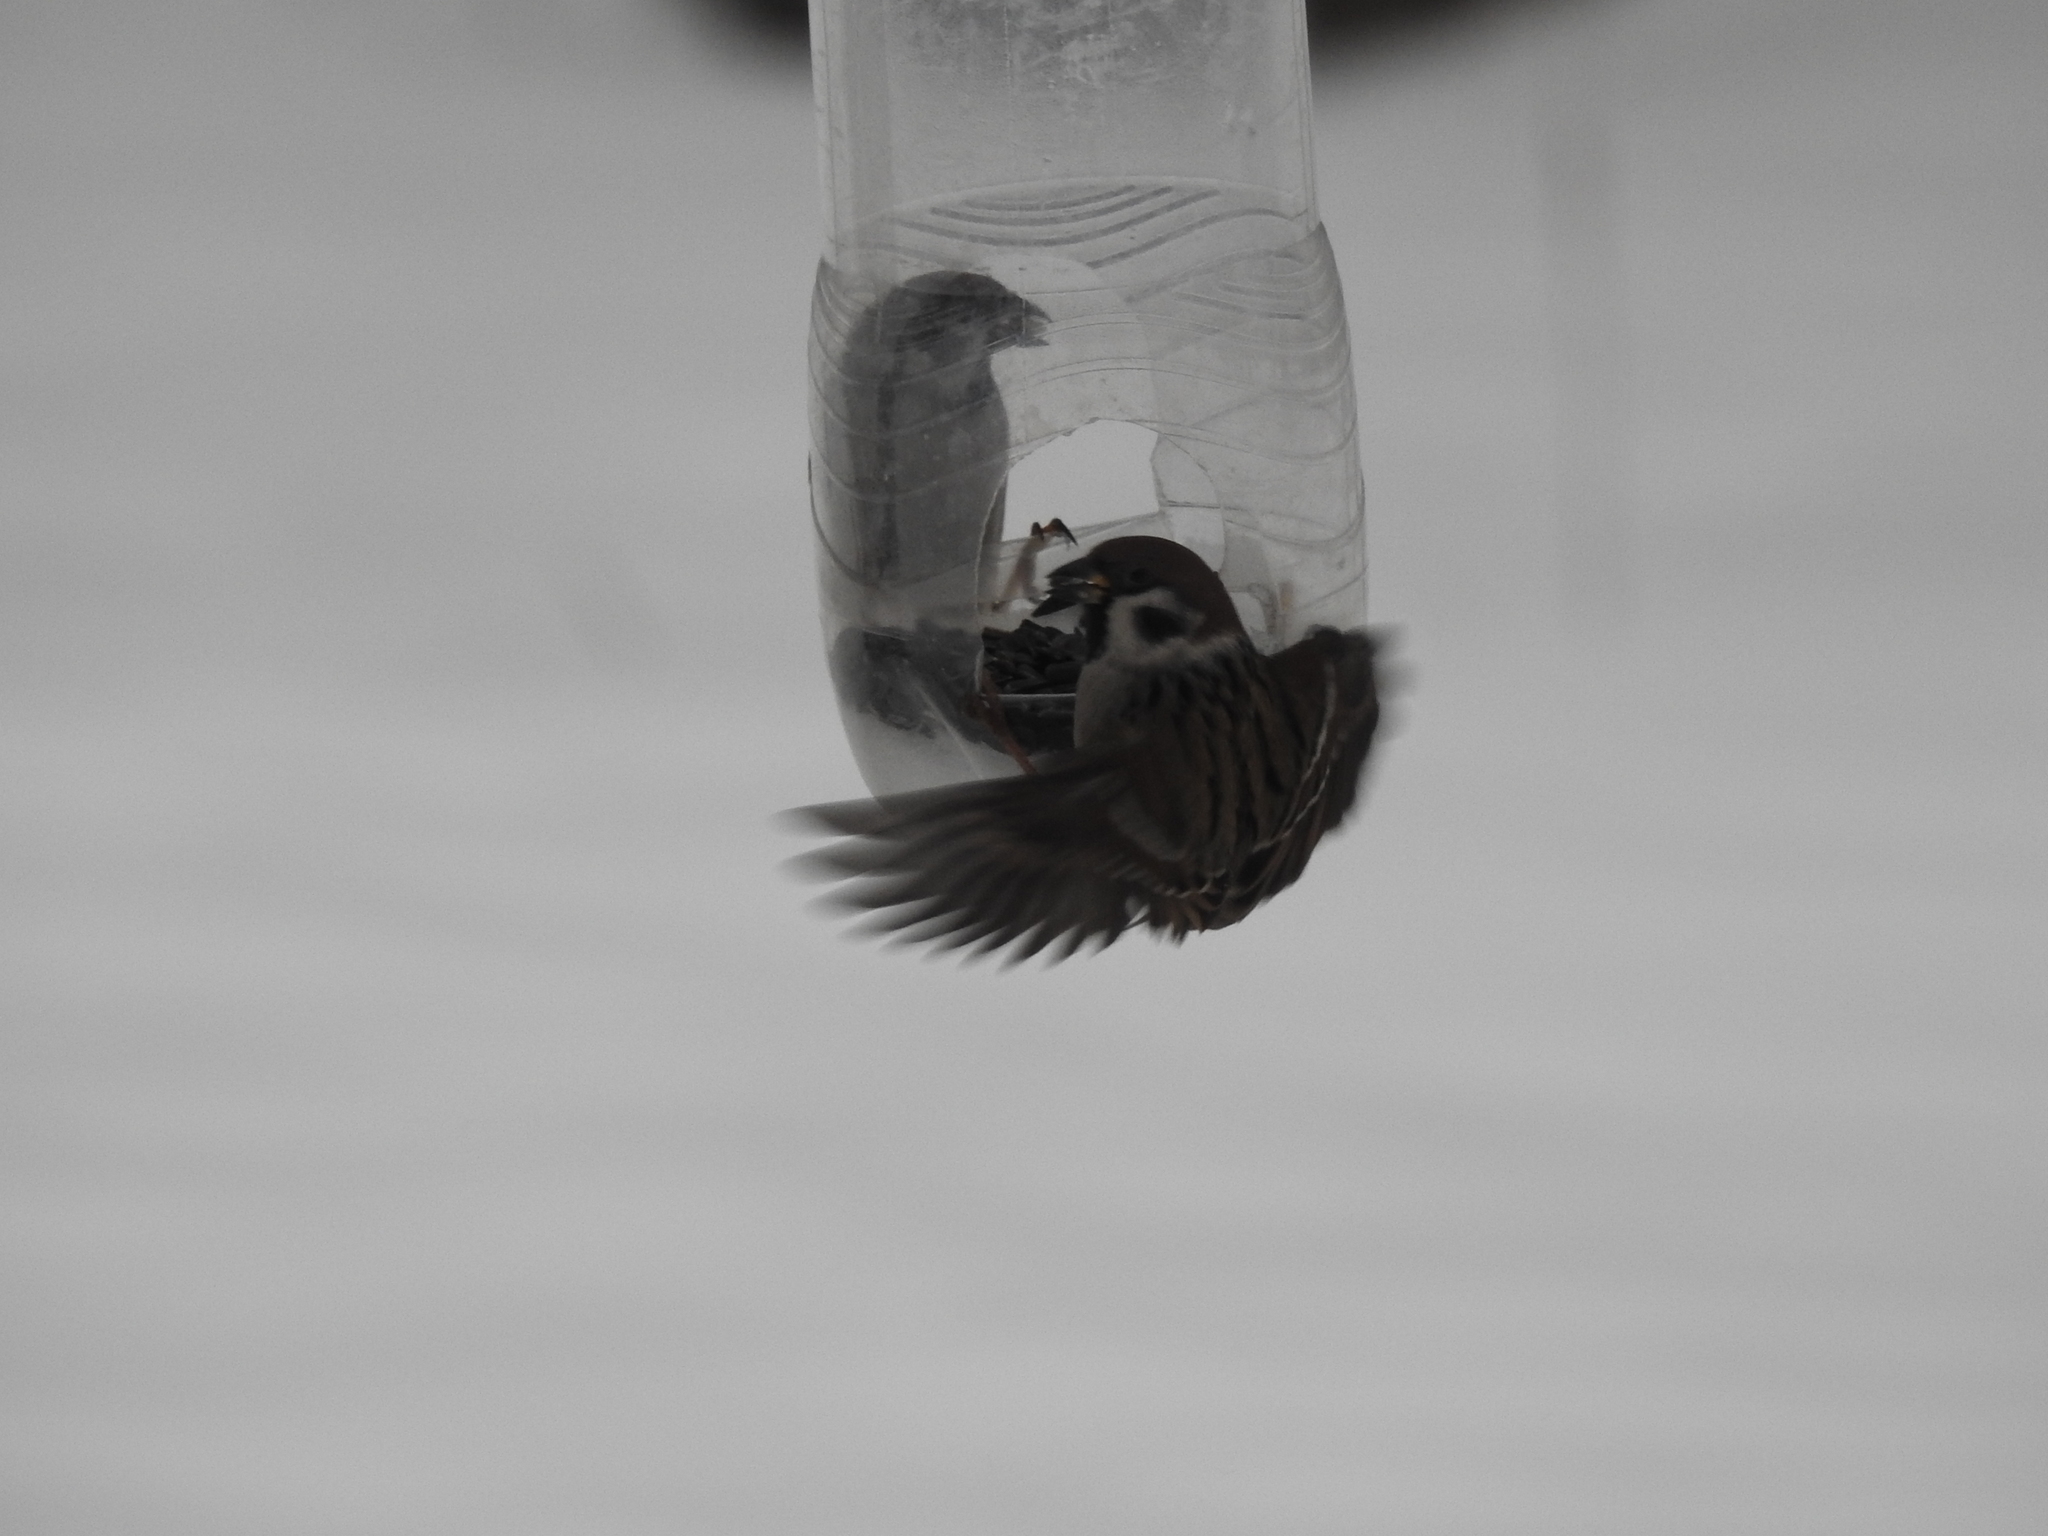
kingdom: Animalia
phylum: Chordata
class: Aves
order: Passeriformes
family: Passeridae
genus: Passer
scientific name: Passer montanus
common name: Eurasian tree sparrow
